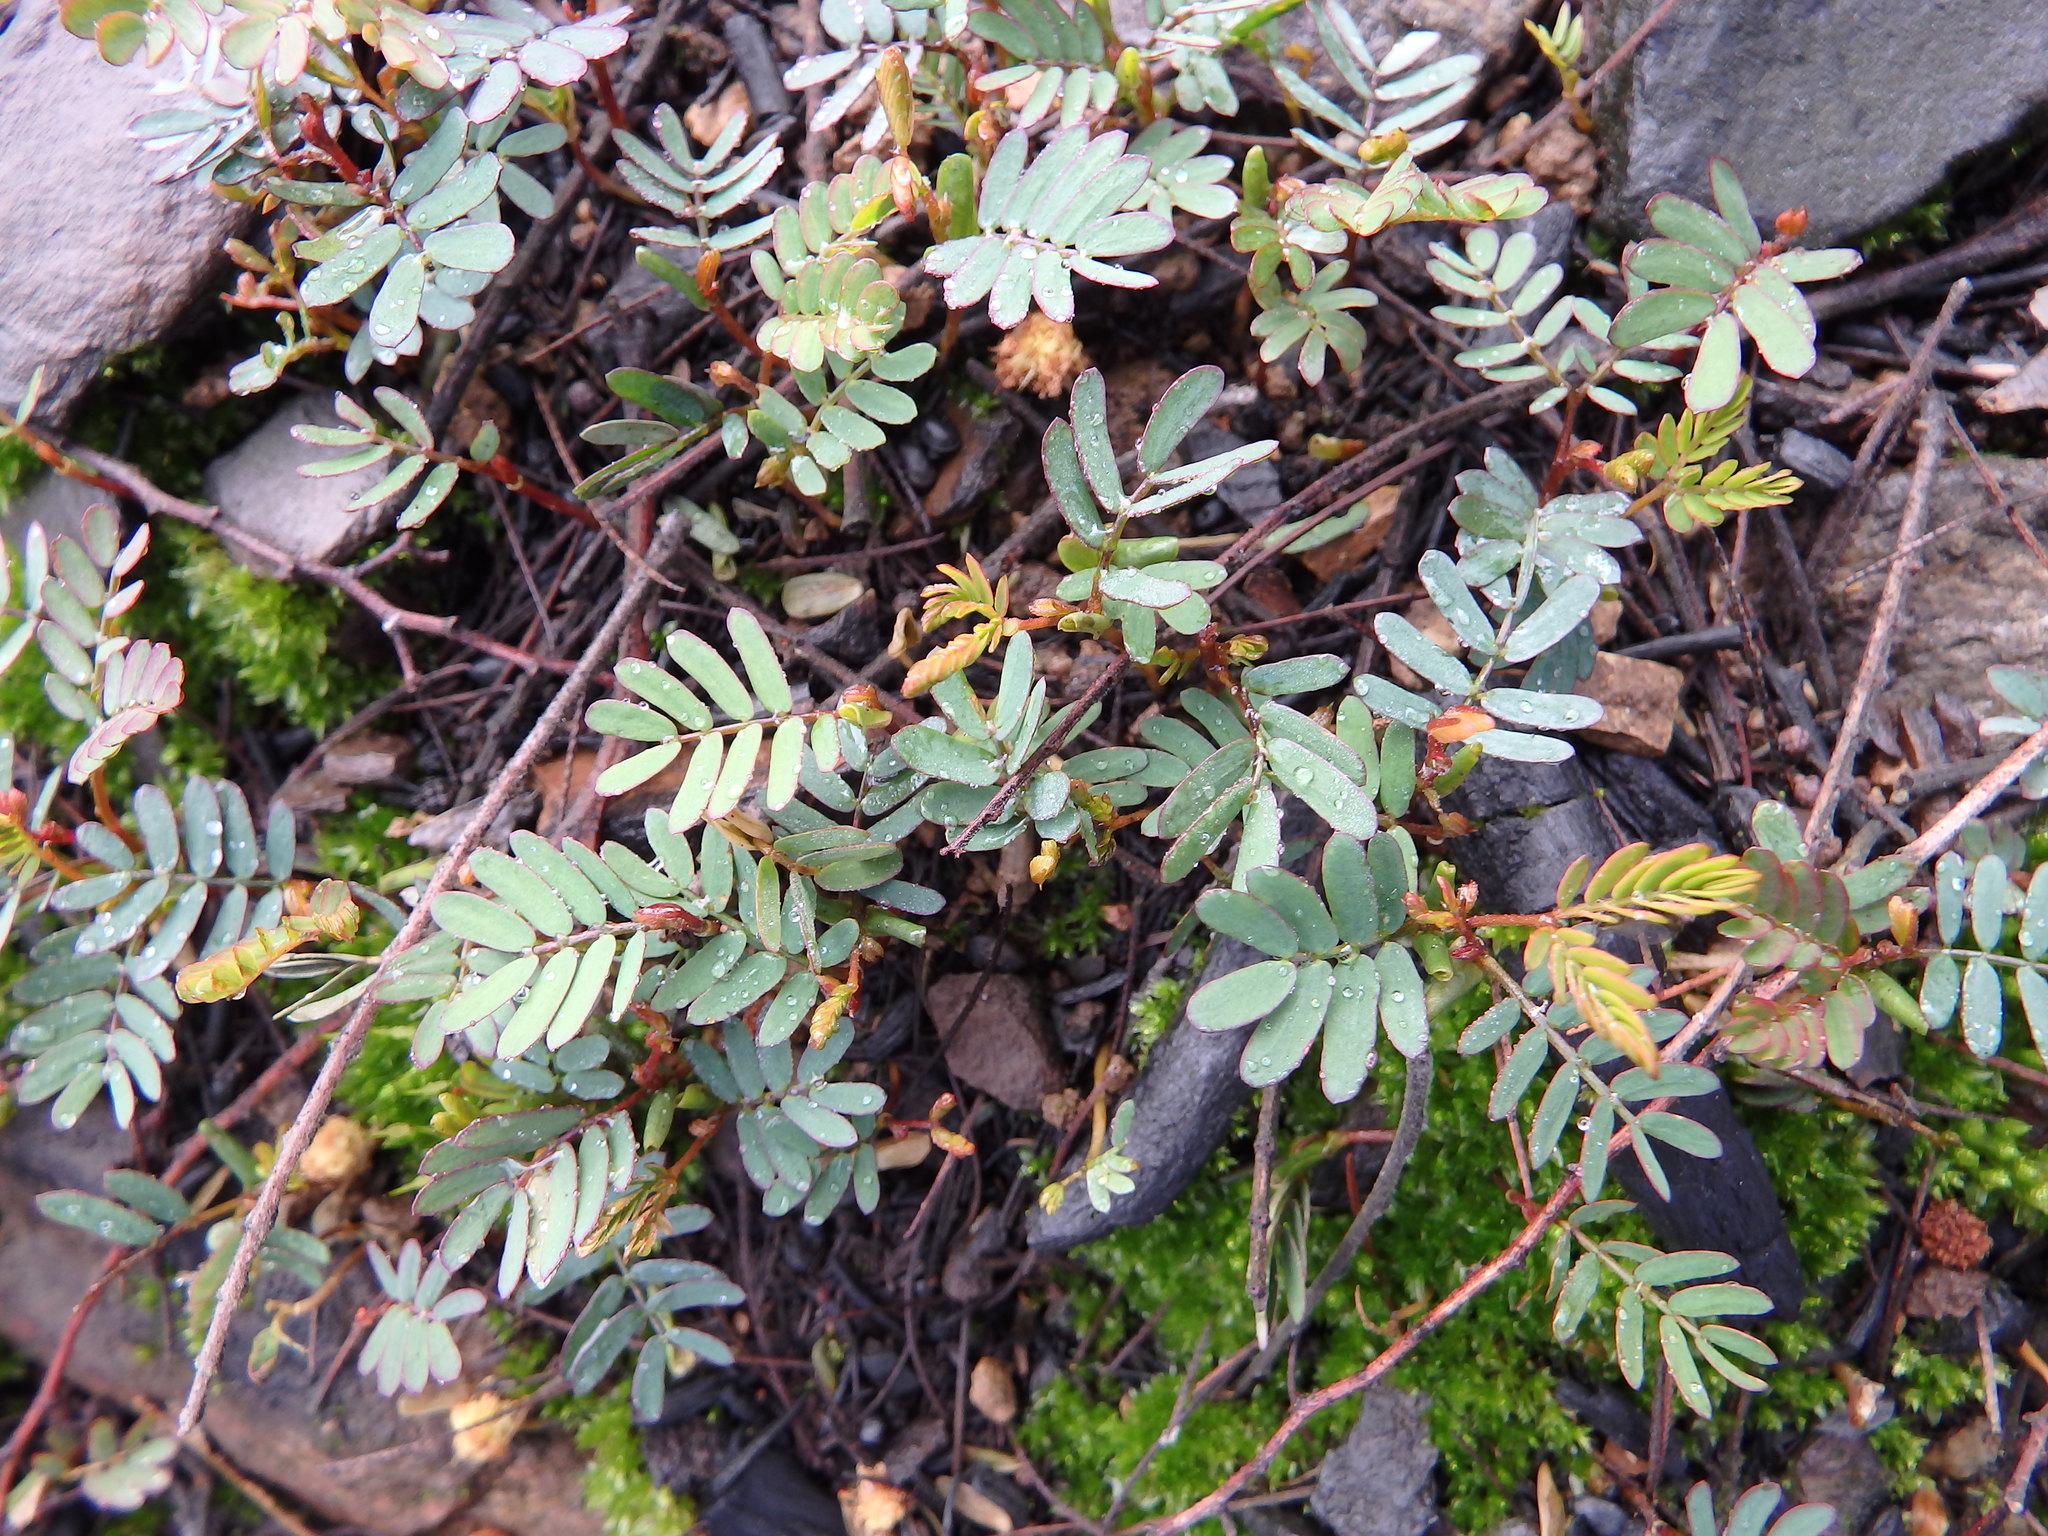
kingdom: Plantae
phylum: Tracheophyta
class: Magnoliopsida
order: Fabales
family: Fabaceae
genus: Acacia
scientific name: Acacia dealbata
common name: Silver wattle
